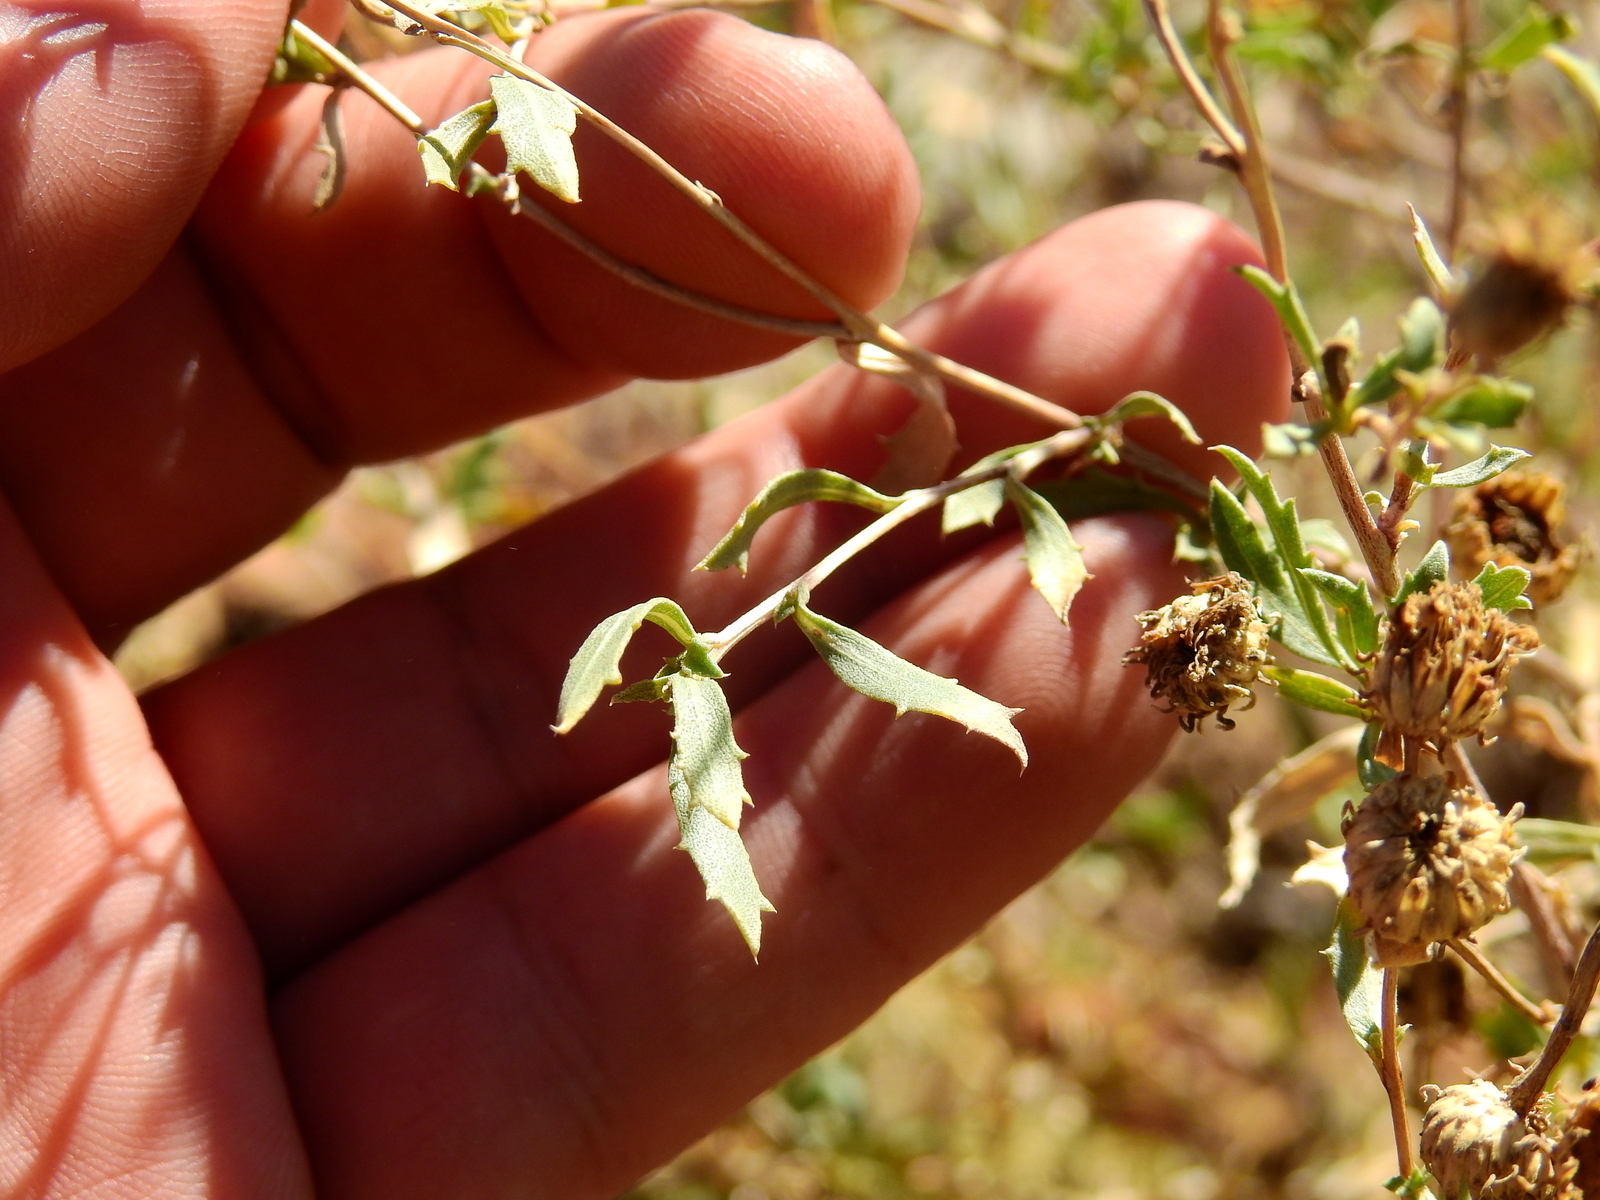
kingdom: Plantae
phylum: Tracheophyta
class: Magnoliopsida
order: Asterales
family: Asteraceae
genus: Grindelia
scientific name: Grindelia pulchella
